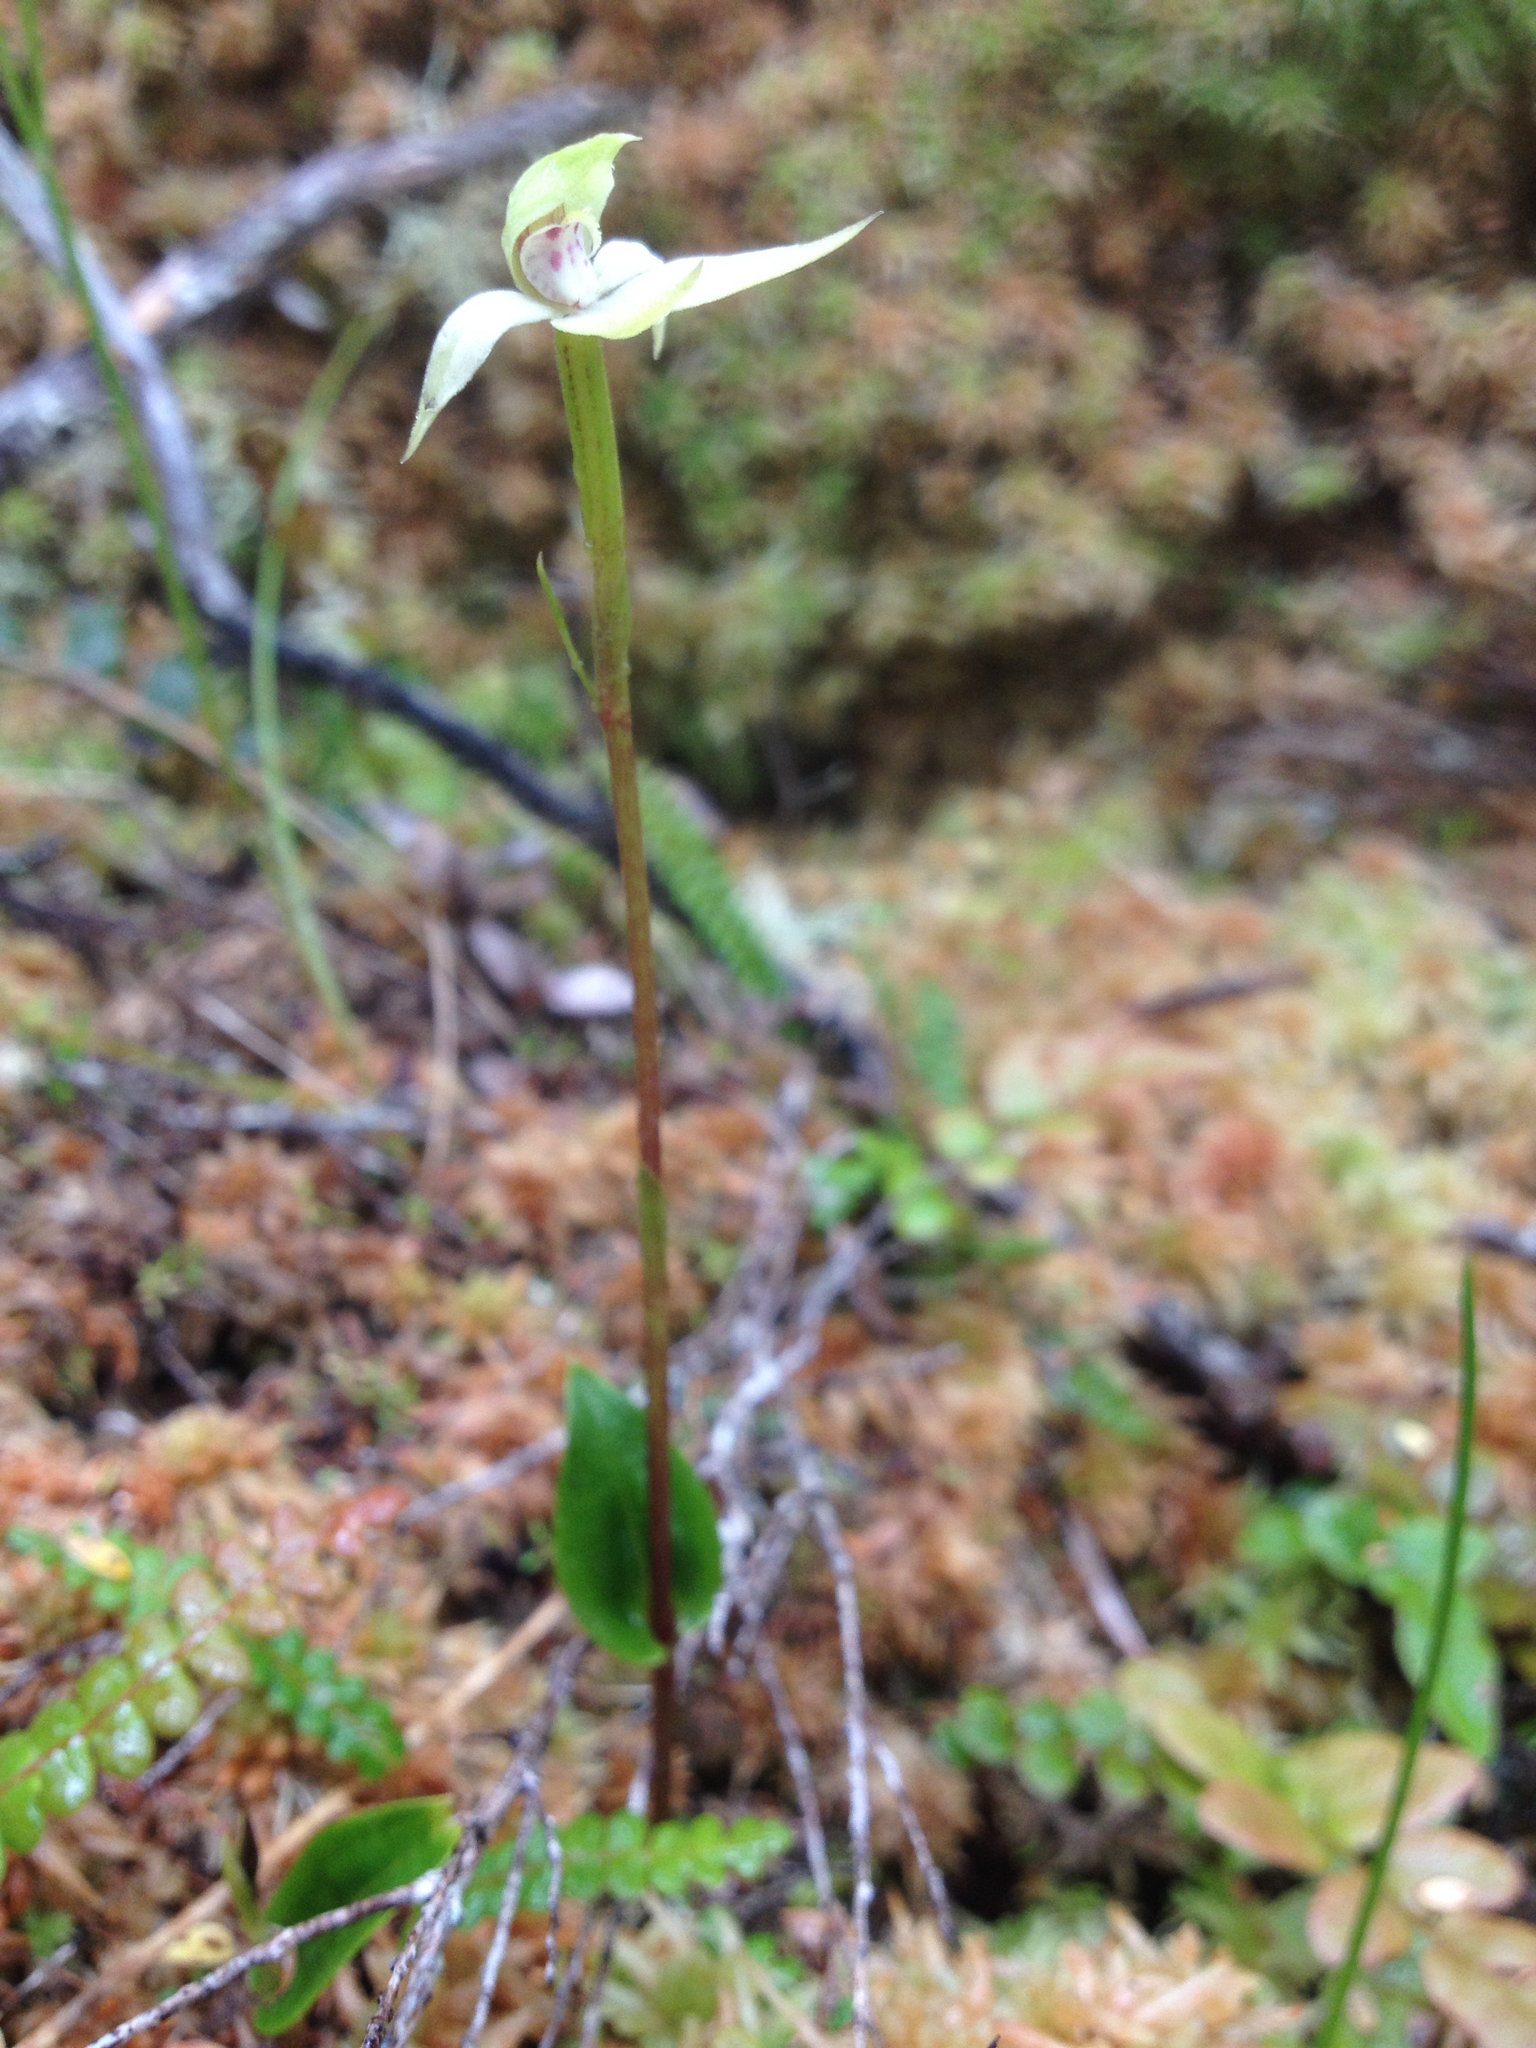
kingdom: Plantae
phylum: Tracheophyta
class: Liliopsida
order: Asparagales
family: Orchidaceae
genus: Adenochilus
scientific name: Adenochilus gracilis
